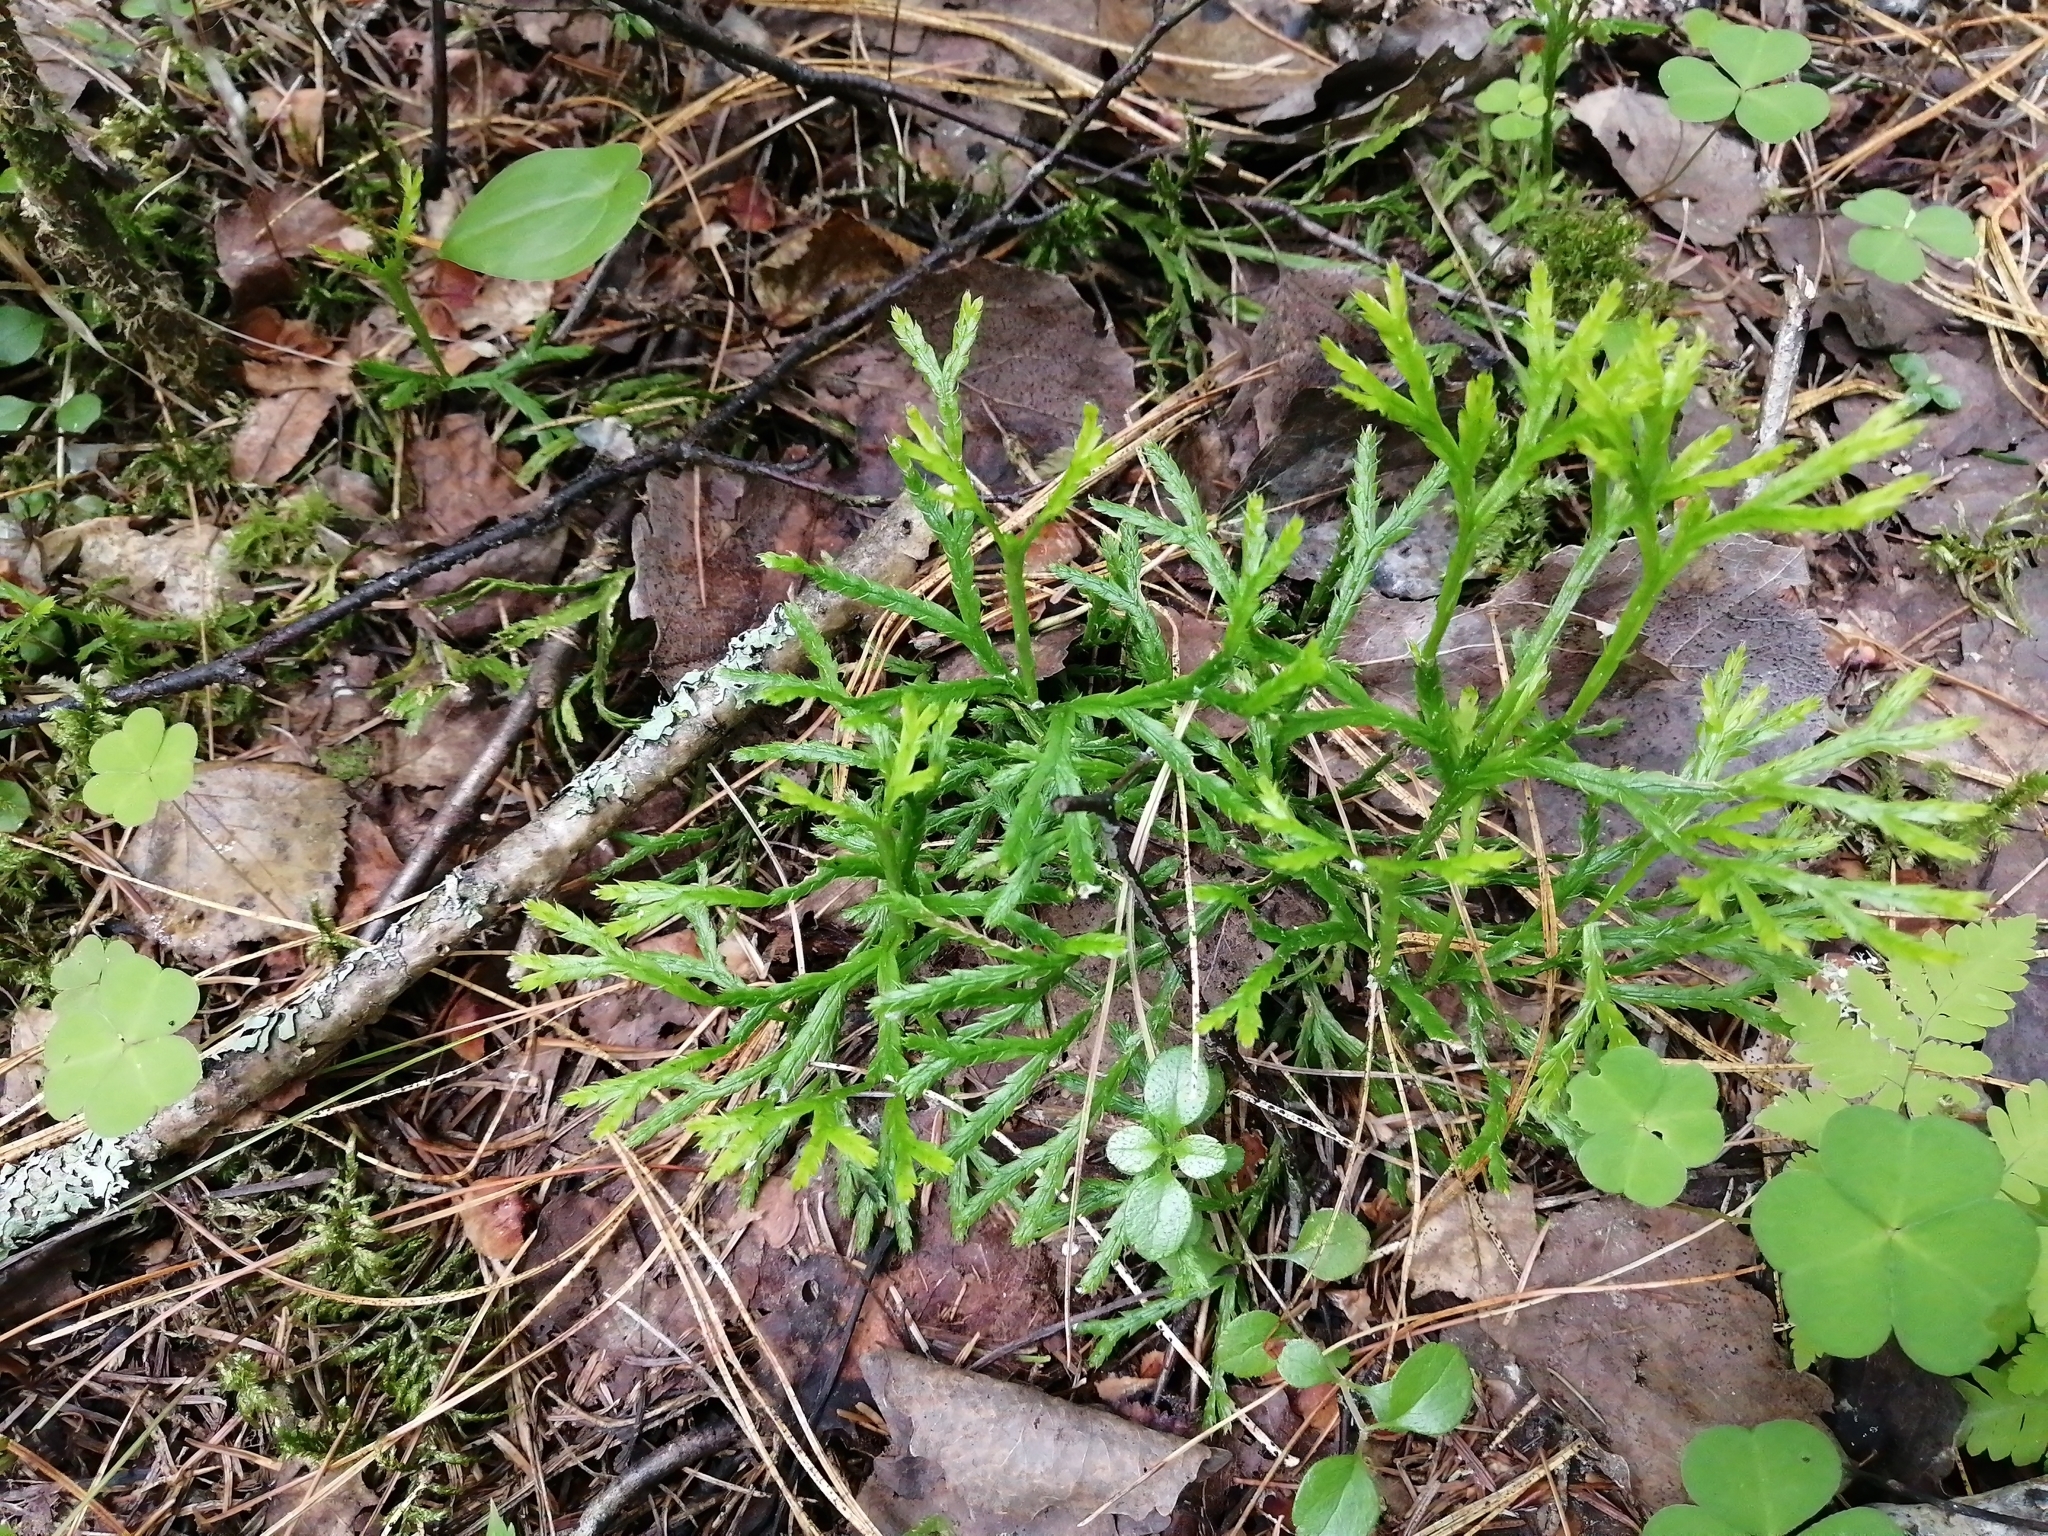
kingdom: Plantae
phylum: Tracheophyta
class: Lycopodiopsida
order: Lycopodiales
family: Lycopodiaceae
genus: Diphasiastrum
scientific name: Diphasiastrum complanatum
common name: Northern running-pine
